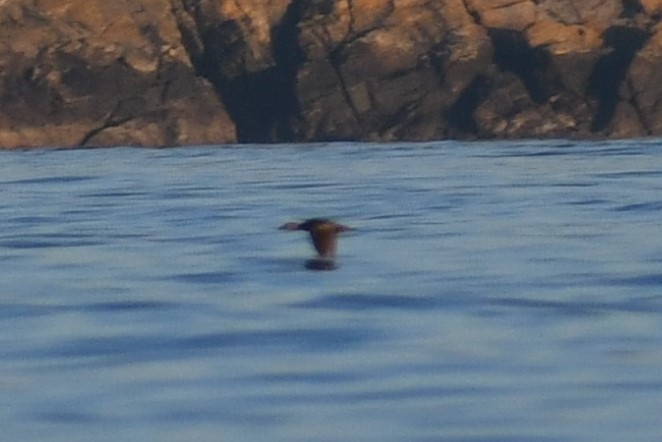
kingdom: Animalia
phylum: Chordata
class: Aves
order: Anseriformes
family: Anatidae
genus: Melanitta
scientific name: Melanitta perspicillata
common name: Surf scoter
